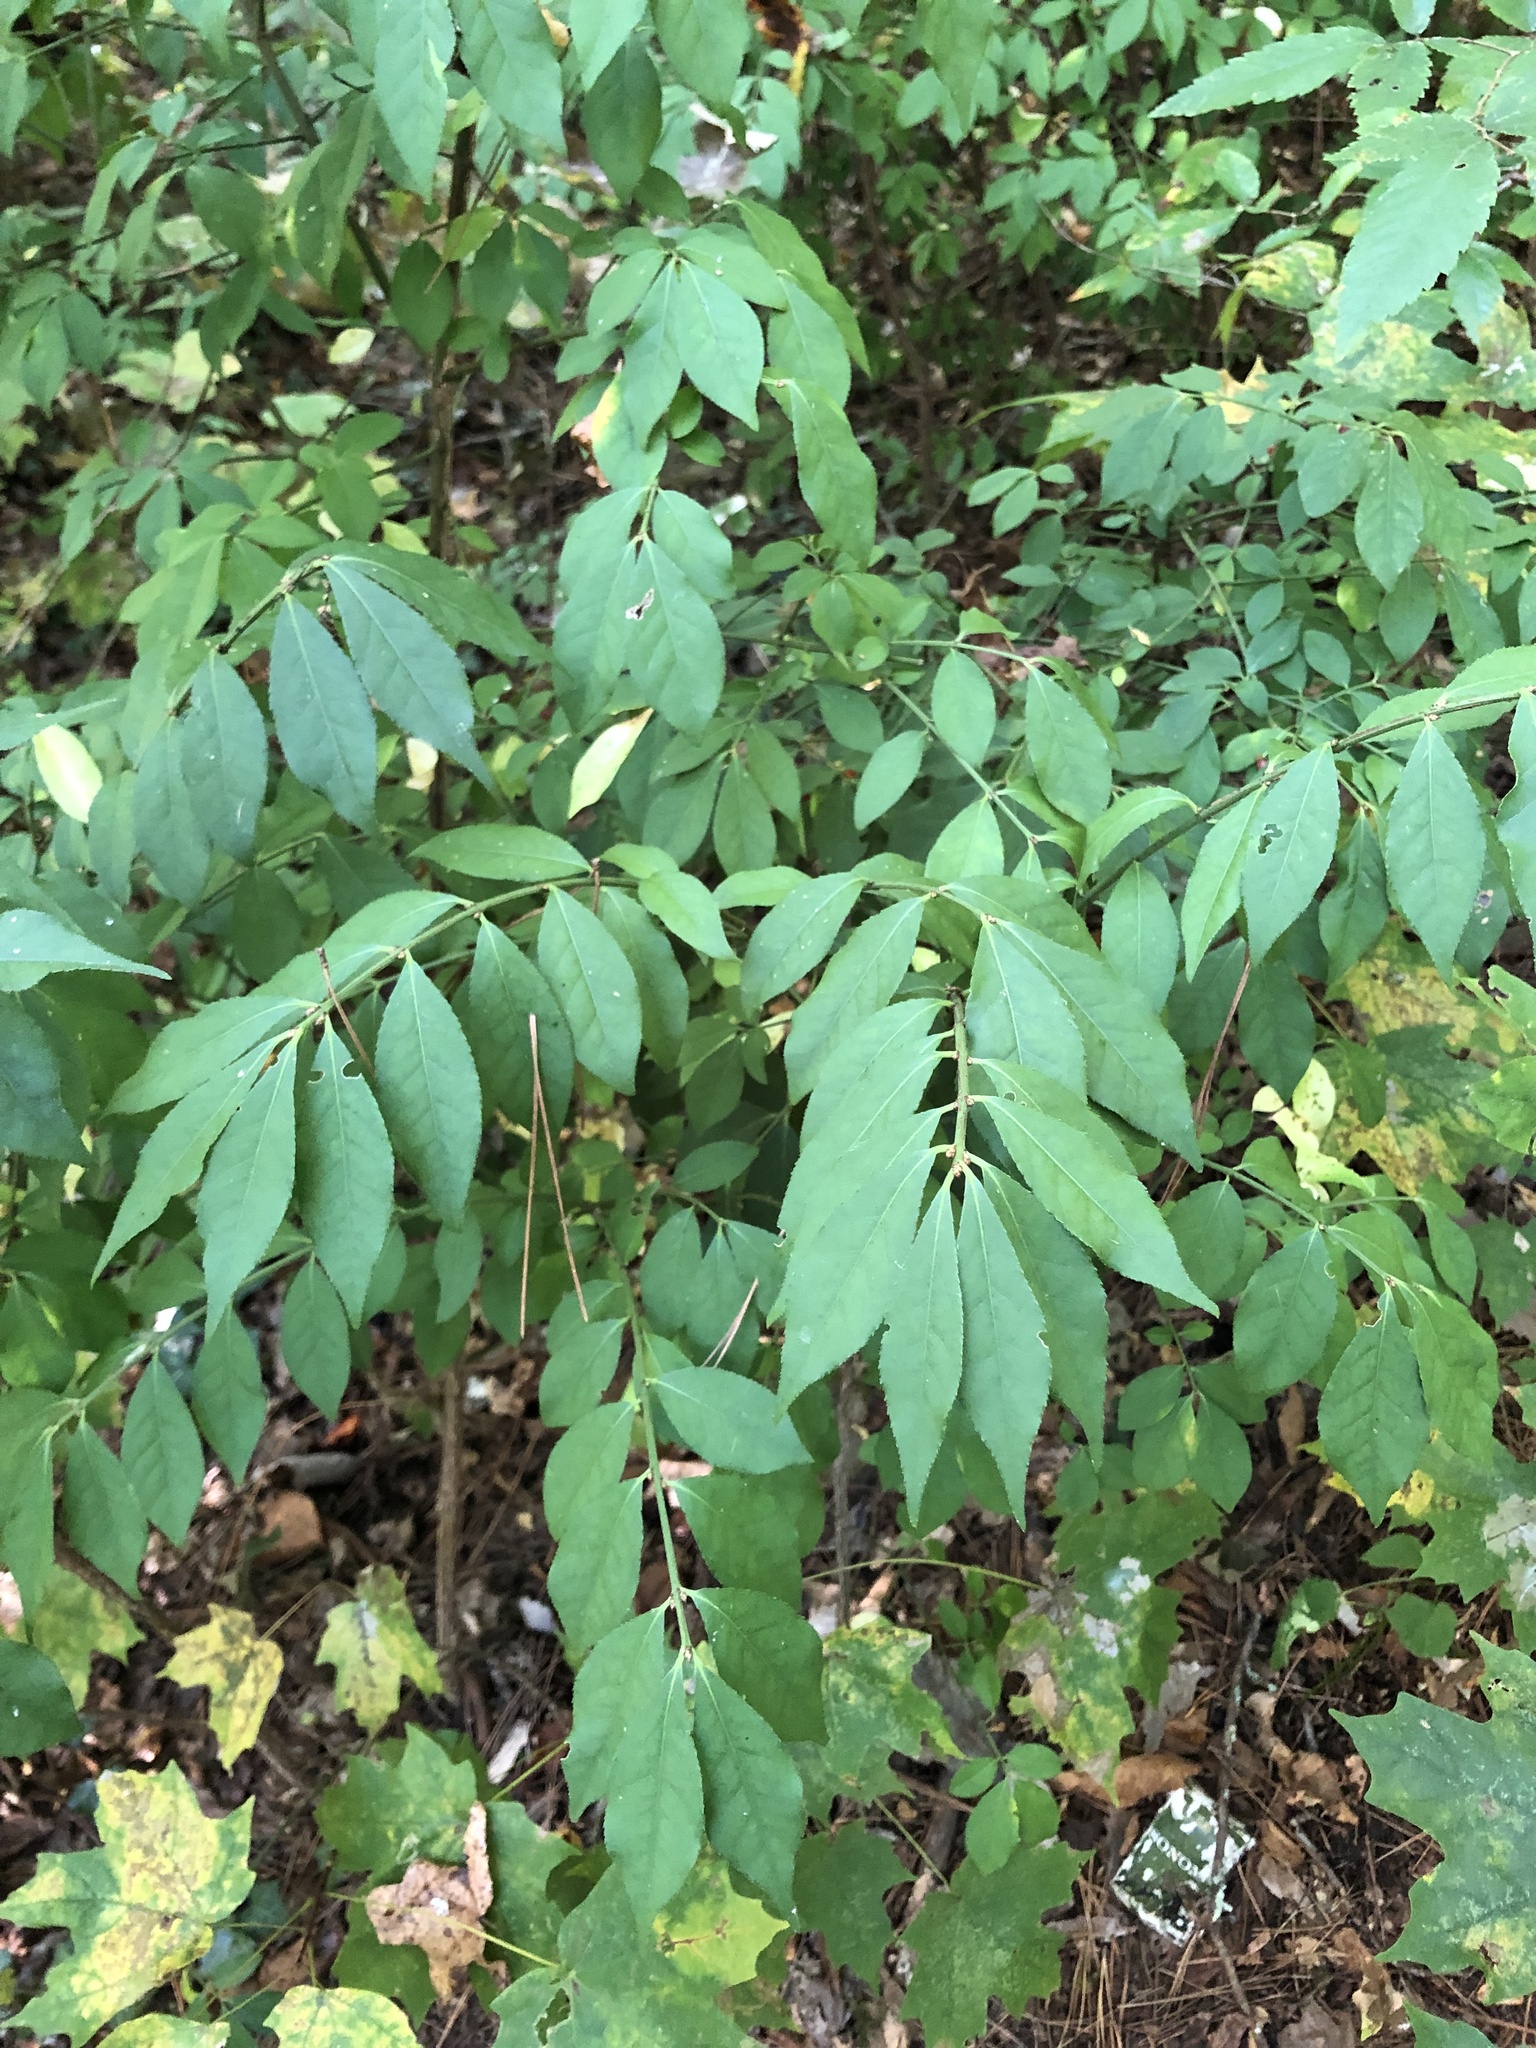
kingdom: Plantae
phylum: Tracheophyta
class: Magnoliopsida
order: Celastrales
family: Celastraceae
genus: Euonymus
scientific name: Euonymus alatus
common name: Winged euonymus
